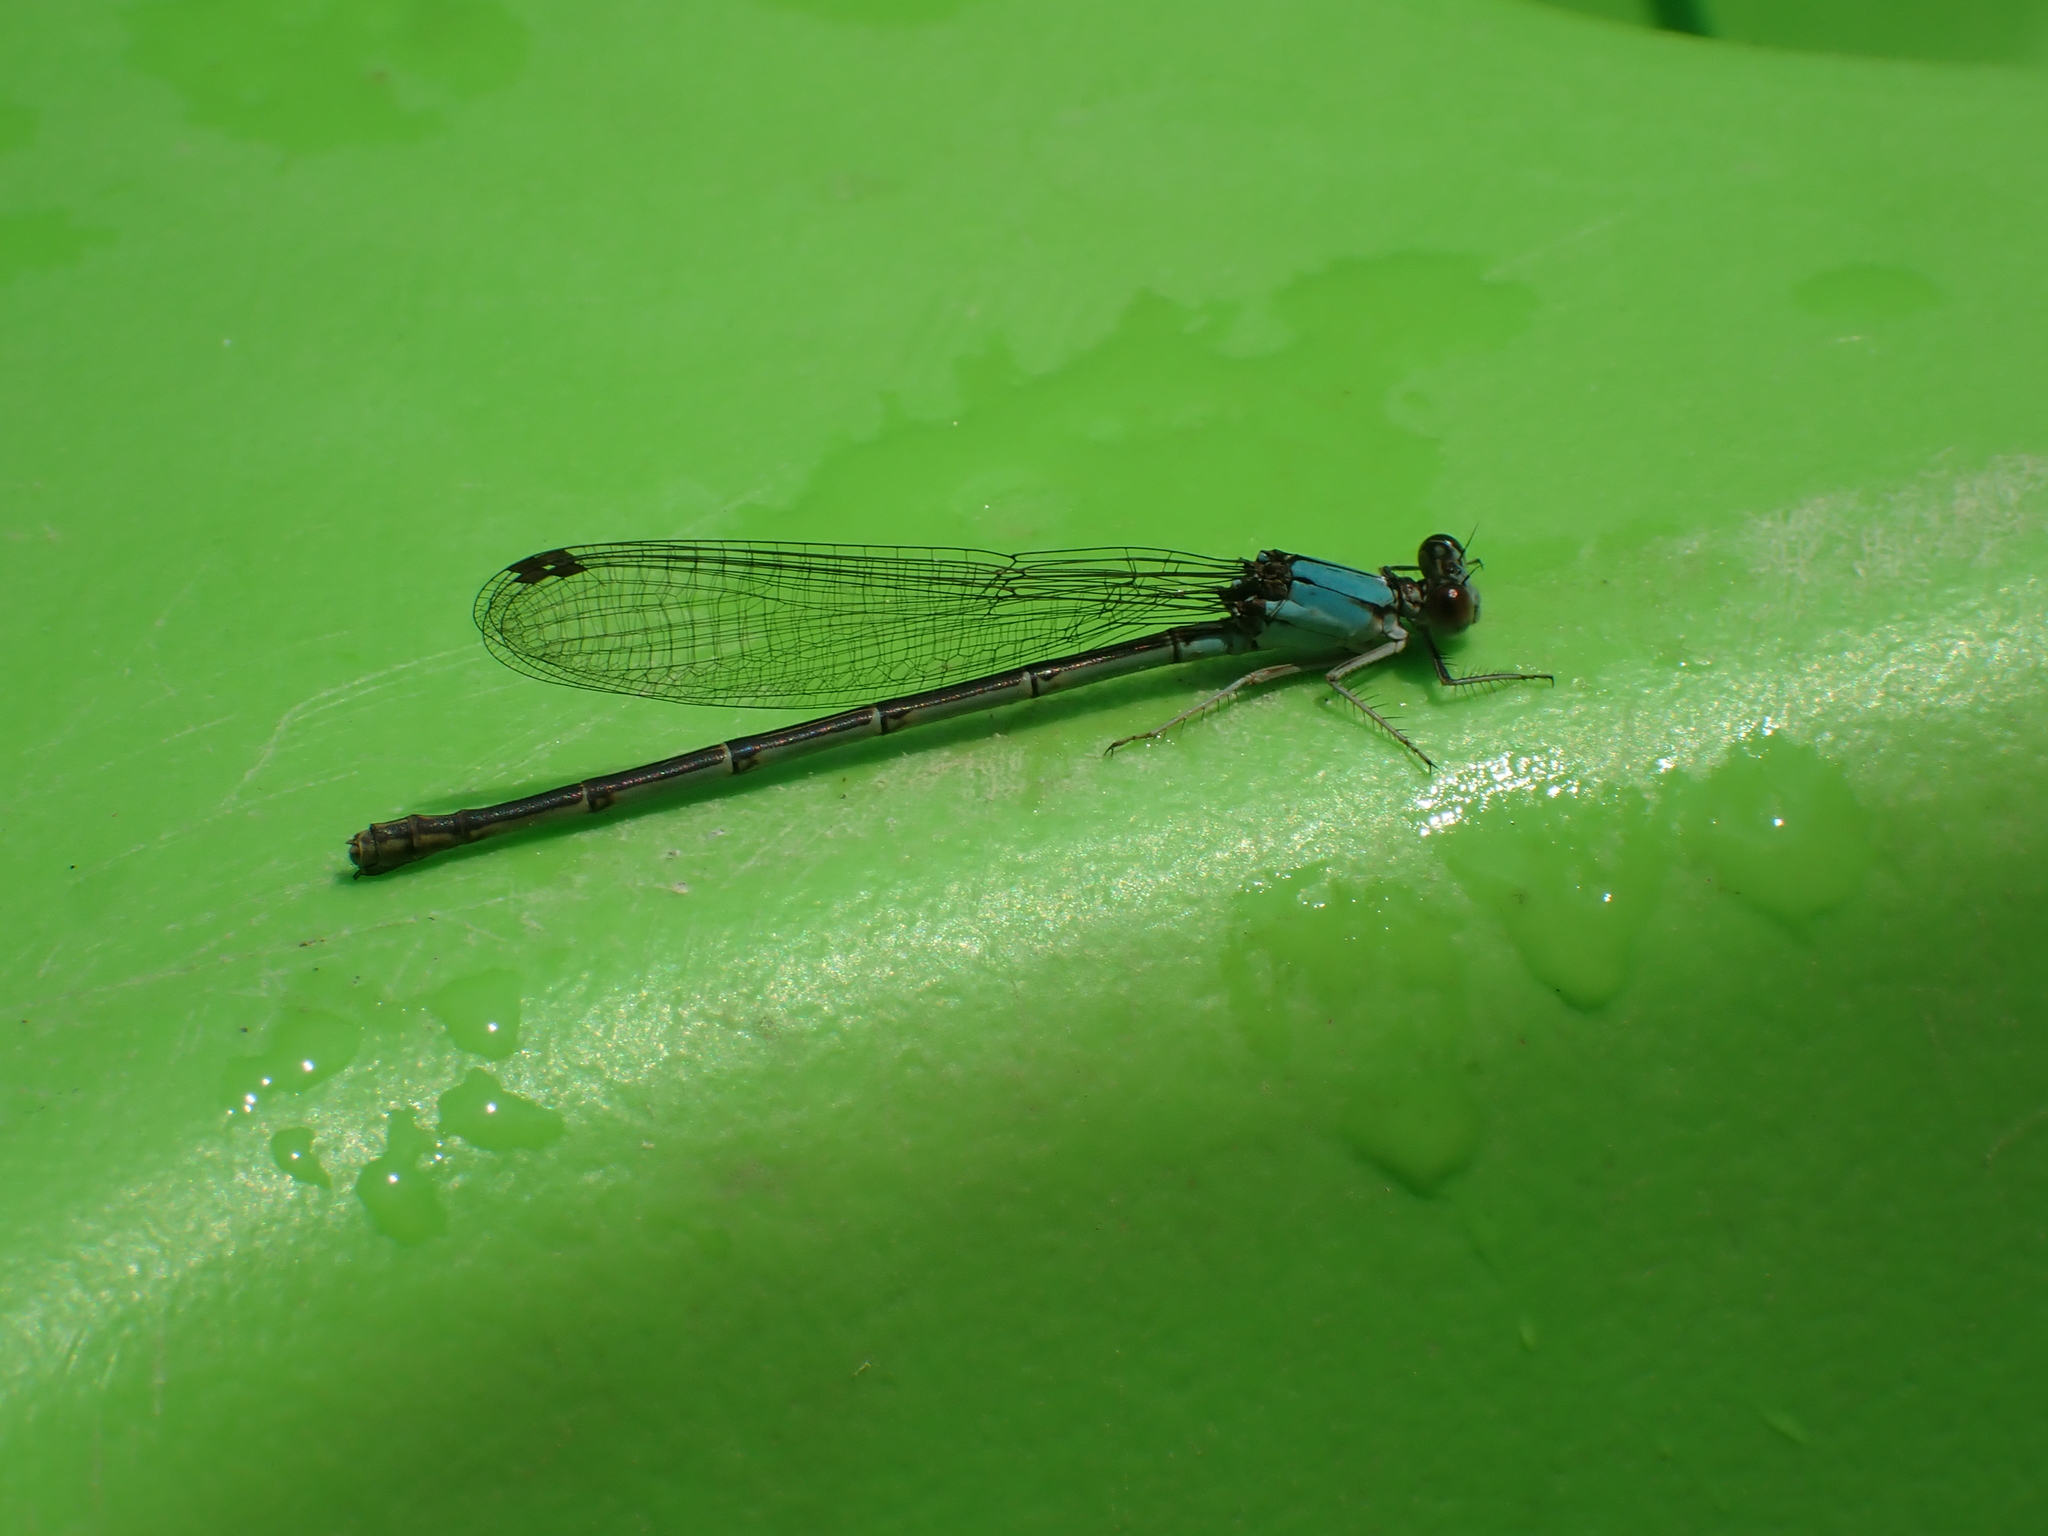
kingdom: Animalia
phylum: Arthropoda
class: Insecta
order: Odonata
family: Coenagrionidae
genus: Argia
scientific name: Argia apicalis
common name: Blue-fronted dancer
